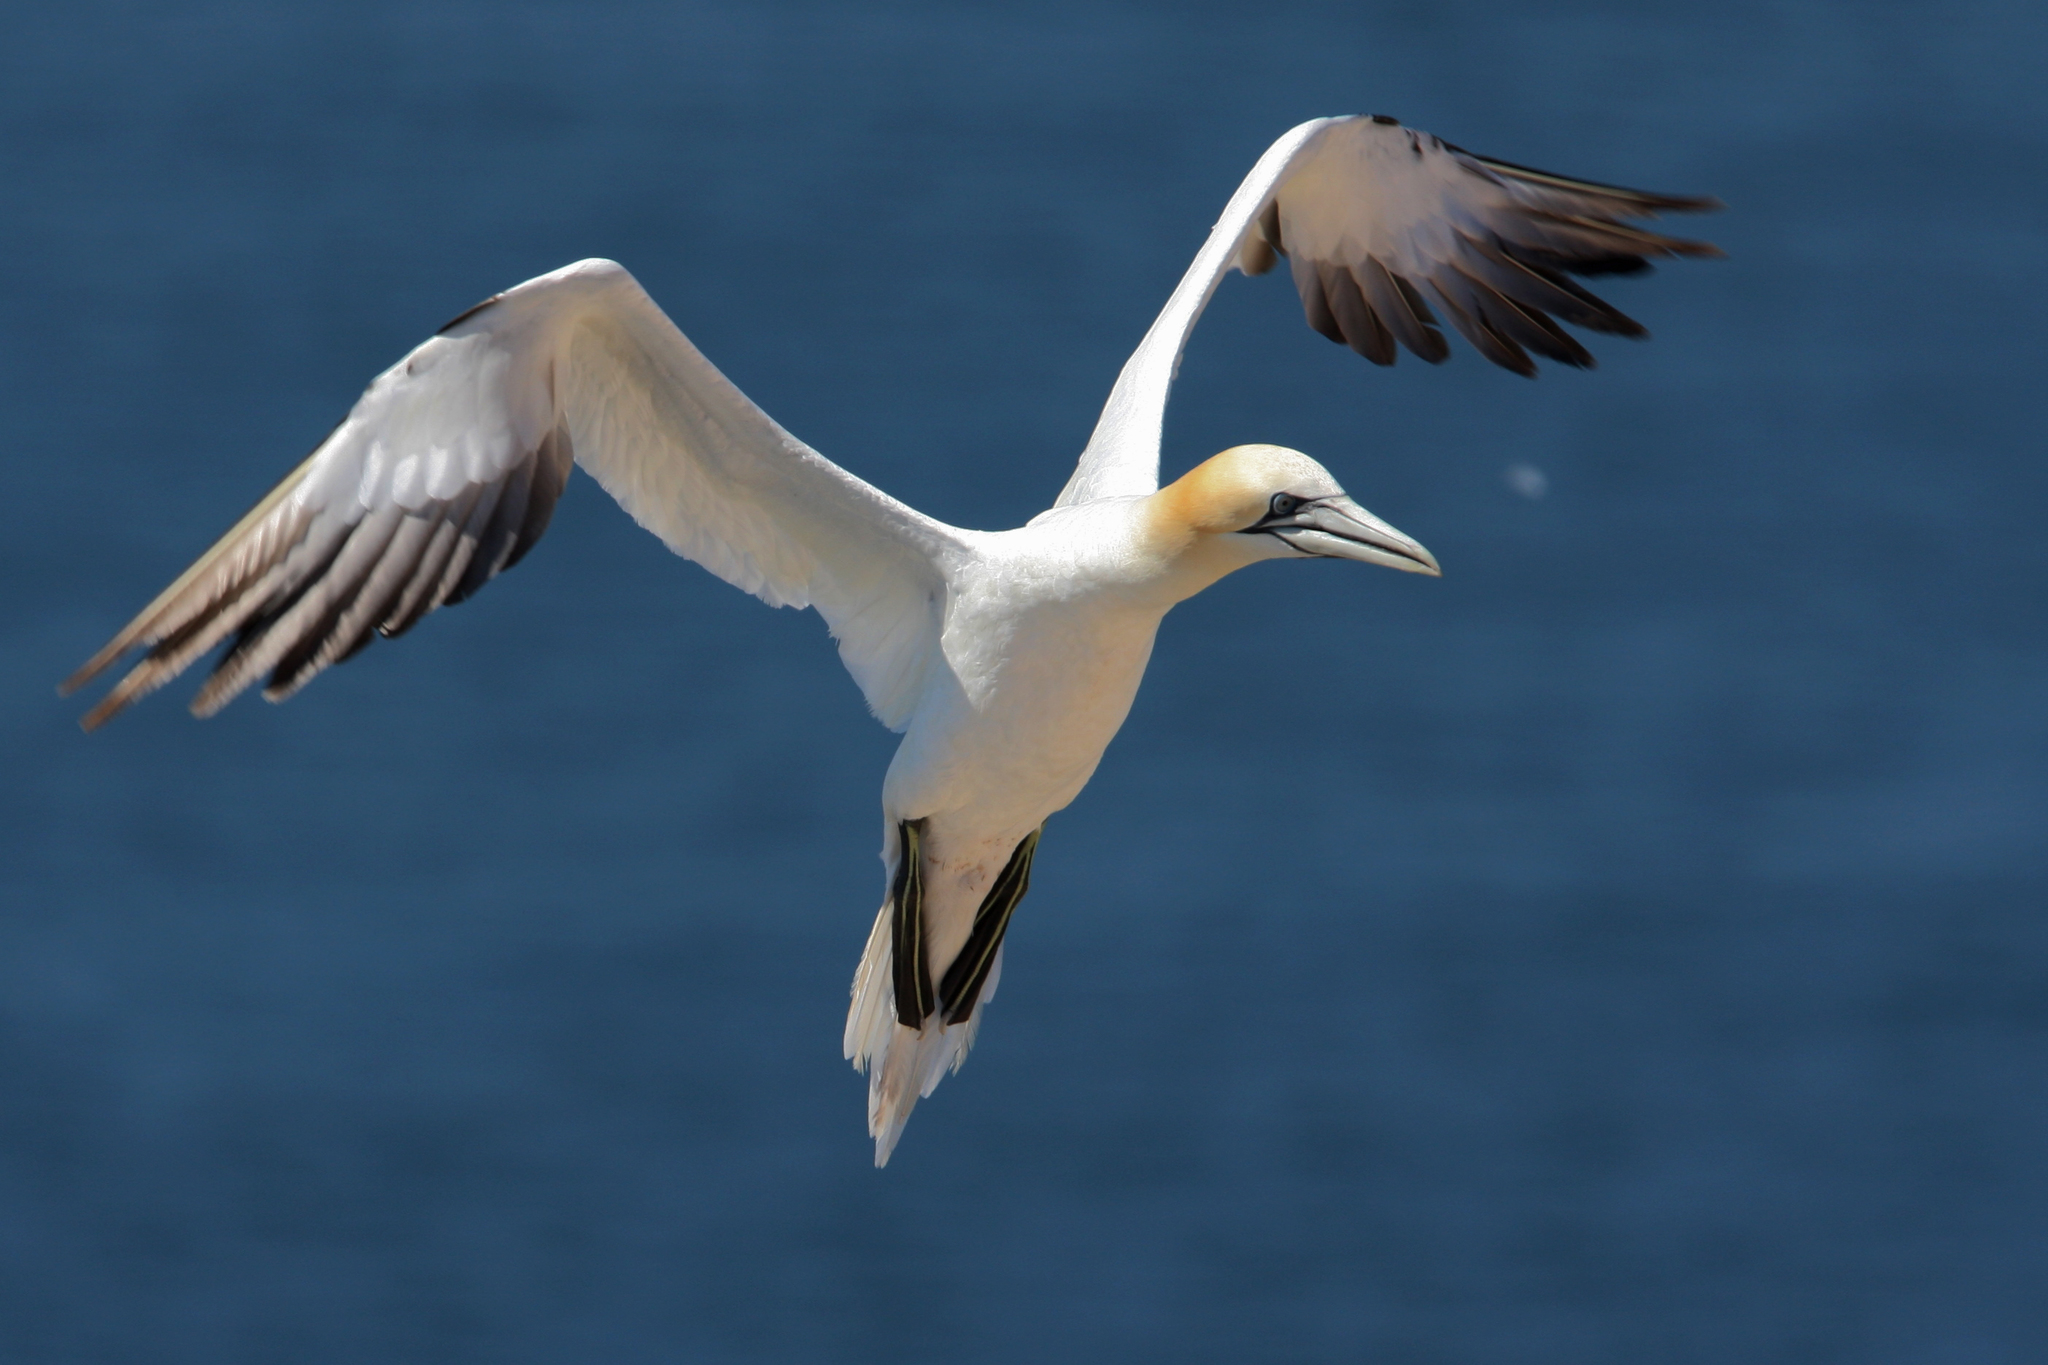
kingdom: Animalia
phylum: Chordata
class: Aves
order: Suliformes
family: Sulidae
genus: Morus
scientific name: Morus bassanus
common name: Northern gannet
